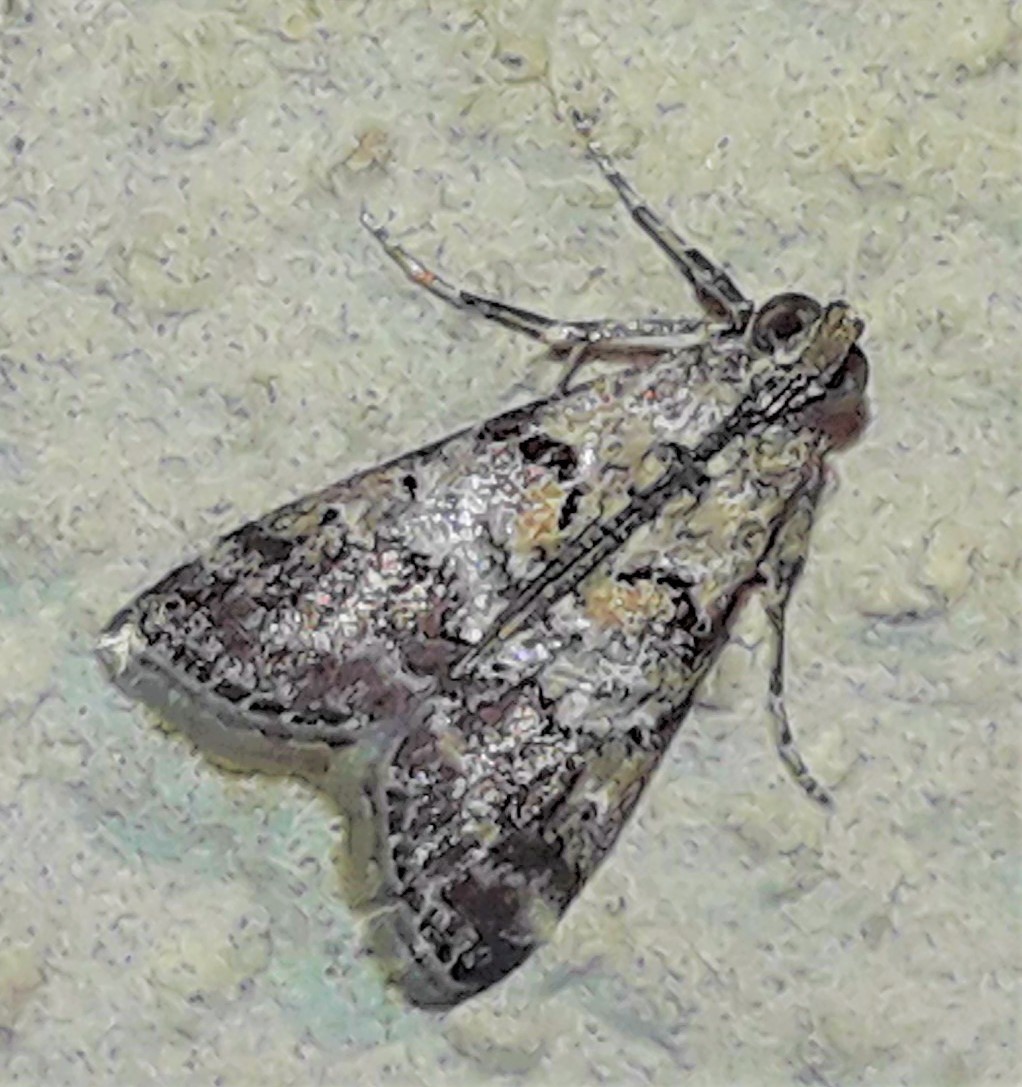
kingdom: Animalia
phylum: Arthropoda
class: Insecta
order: Lepidoptera
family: Pyralidae
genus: Pococera
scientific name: Pococera asperatella
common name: Maple webworm moth
